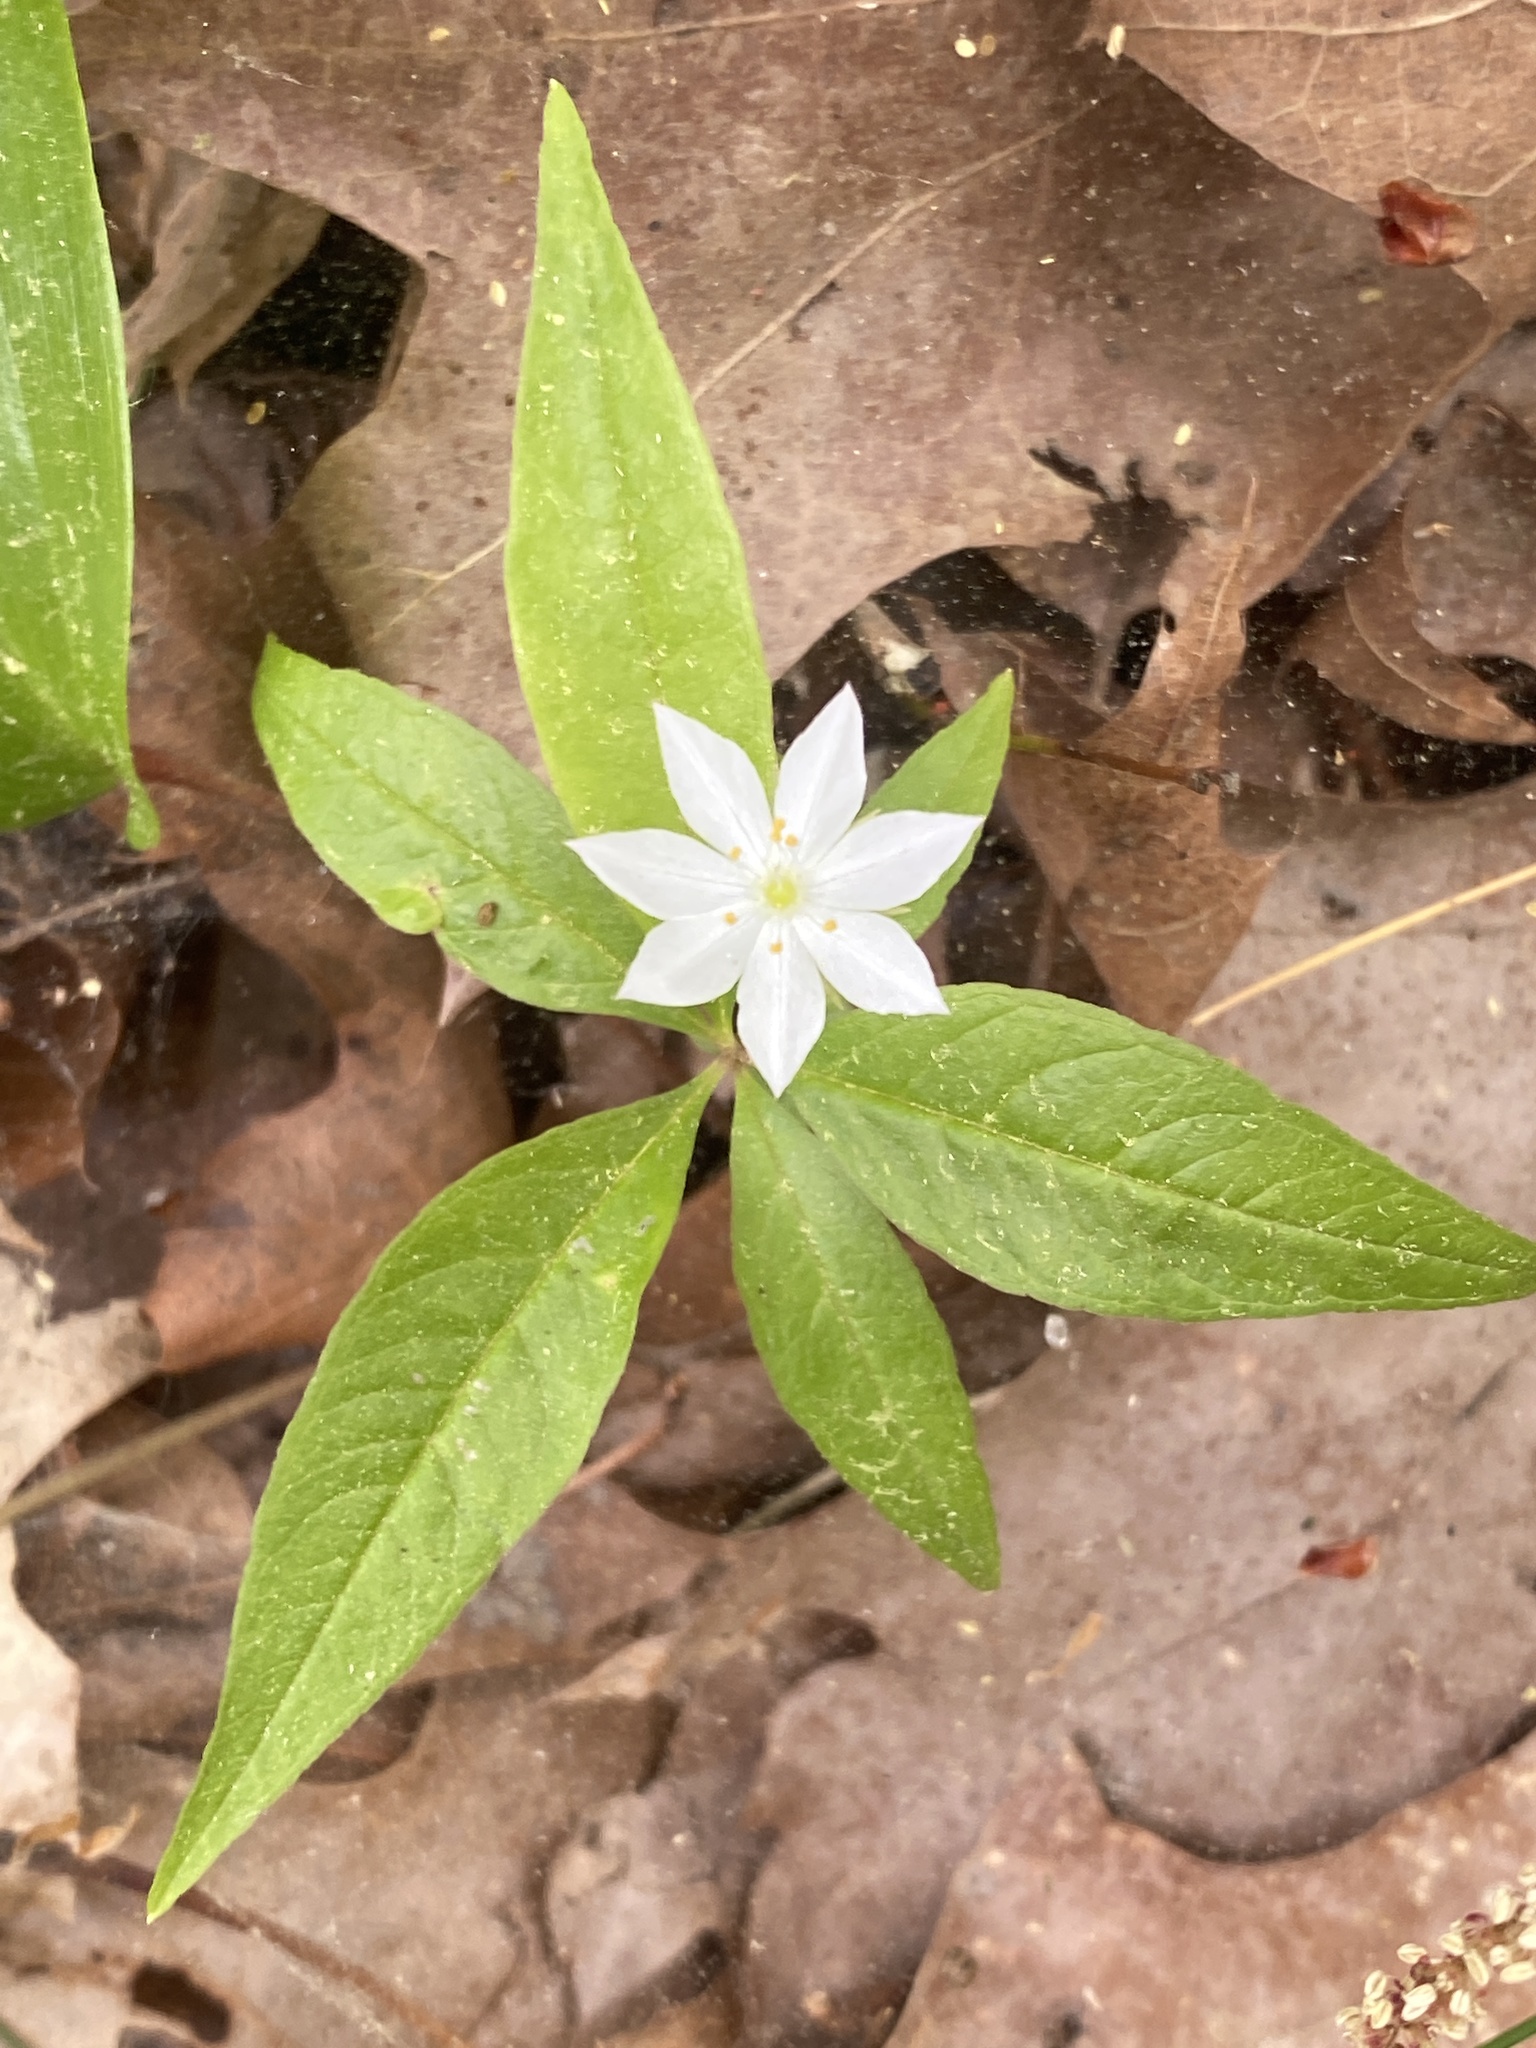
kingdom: Plantae
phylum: Tracheophyta
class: Magnoliopsida
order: Ericales
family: Primulaceae
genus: Lysimachia
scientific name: Lysimachia borealis
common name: American starflower
